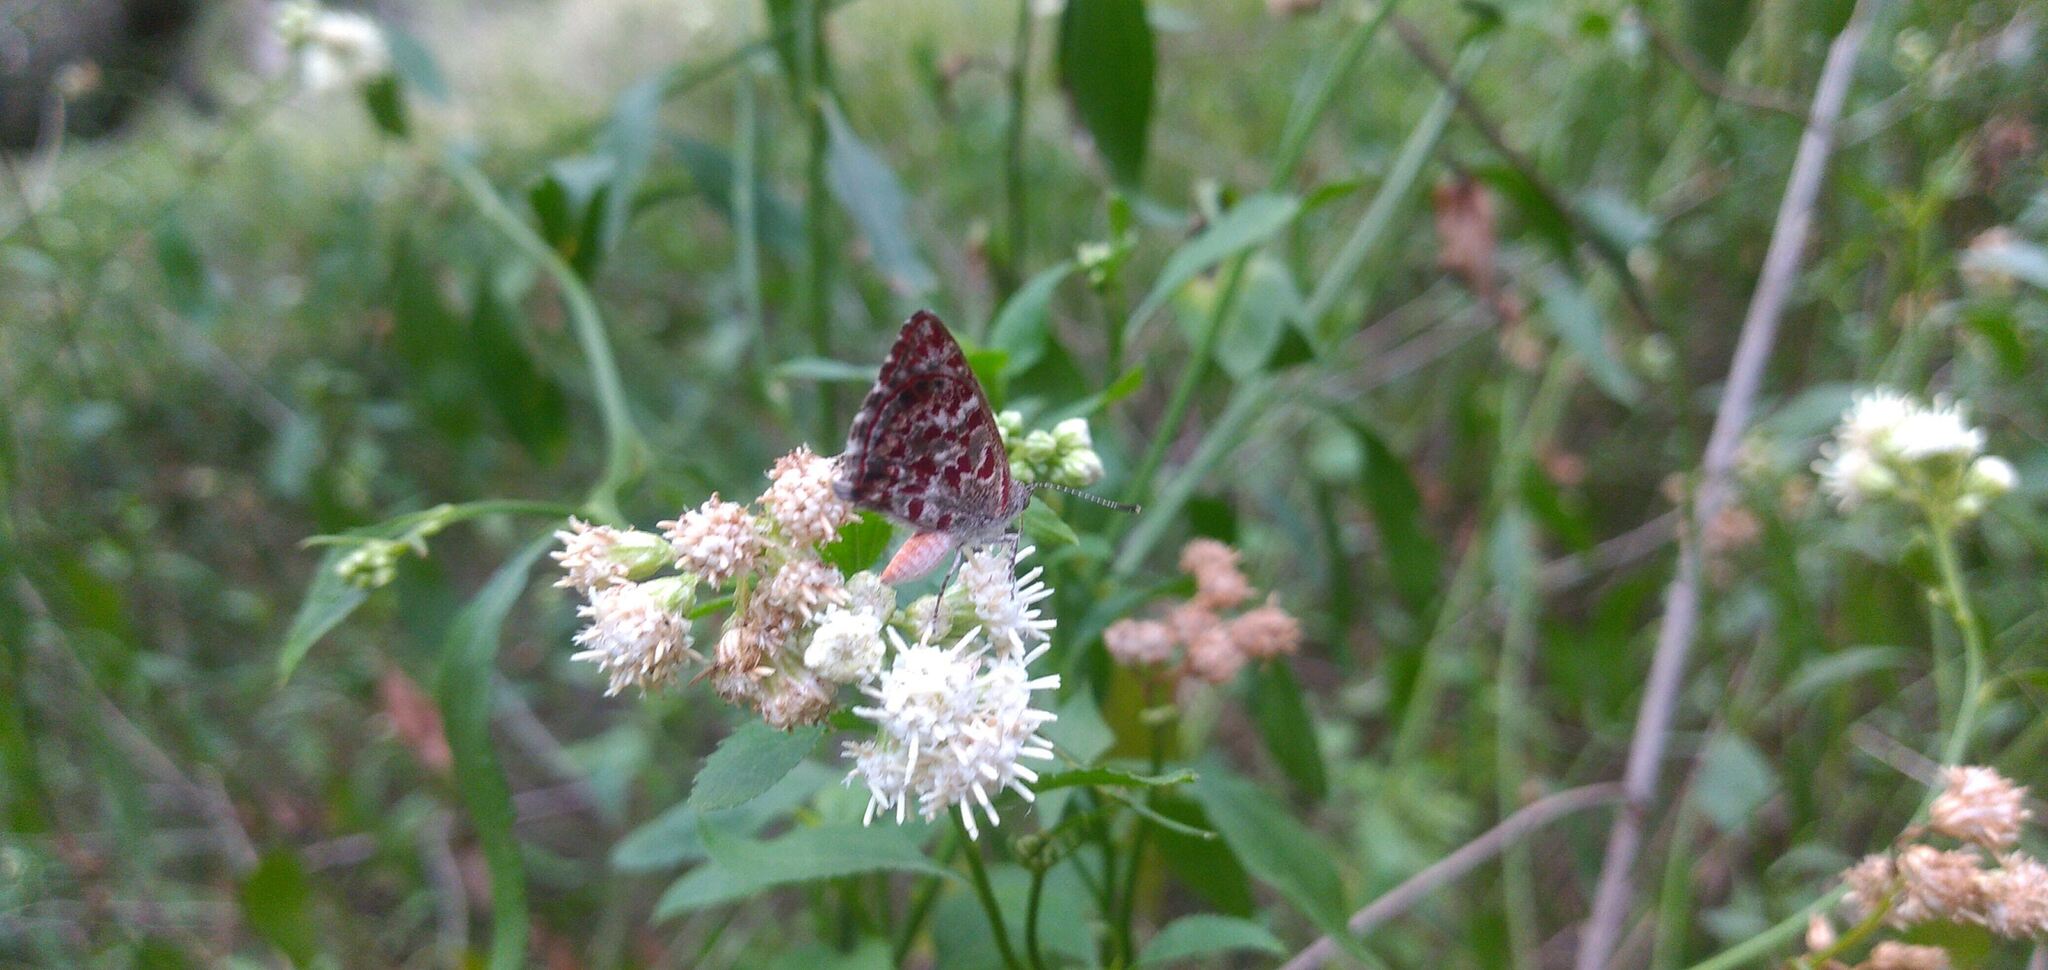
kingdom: Animalia
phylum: Arthropoda
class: Insecta
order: Lepidoptera
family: Lycaenidae
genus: Ministrymon
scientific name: Ministrymon
